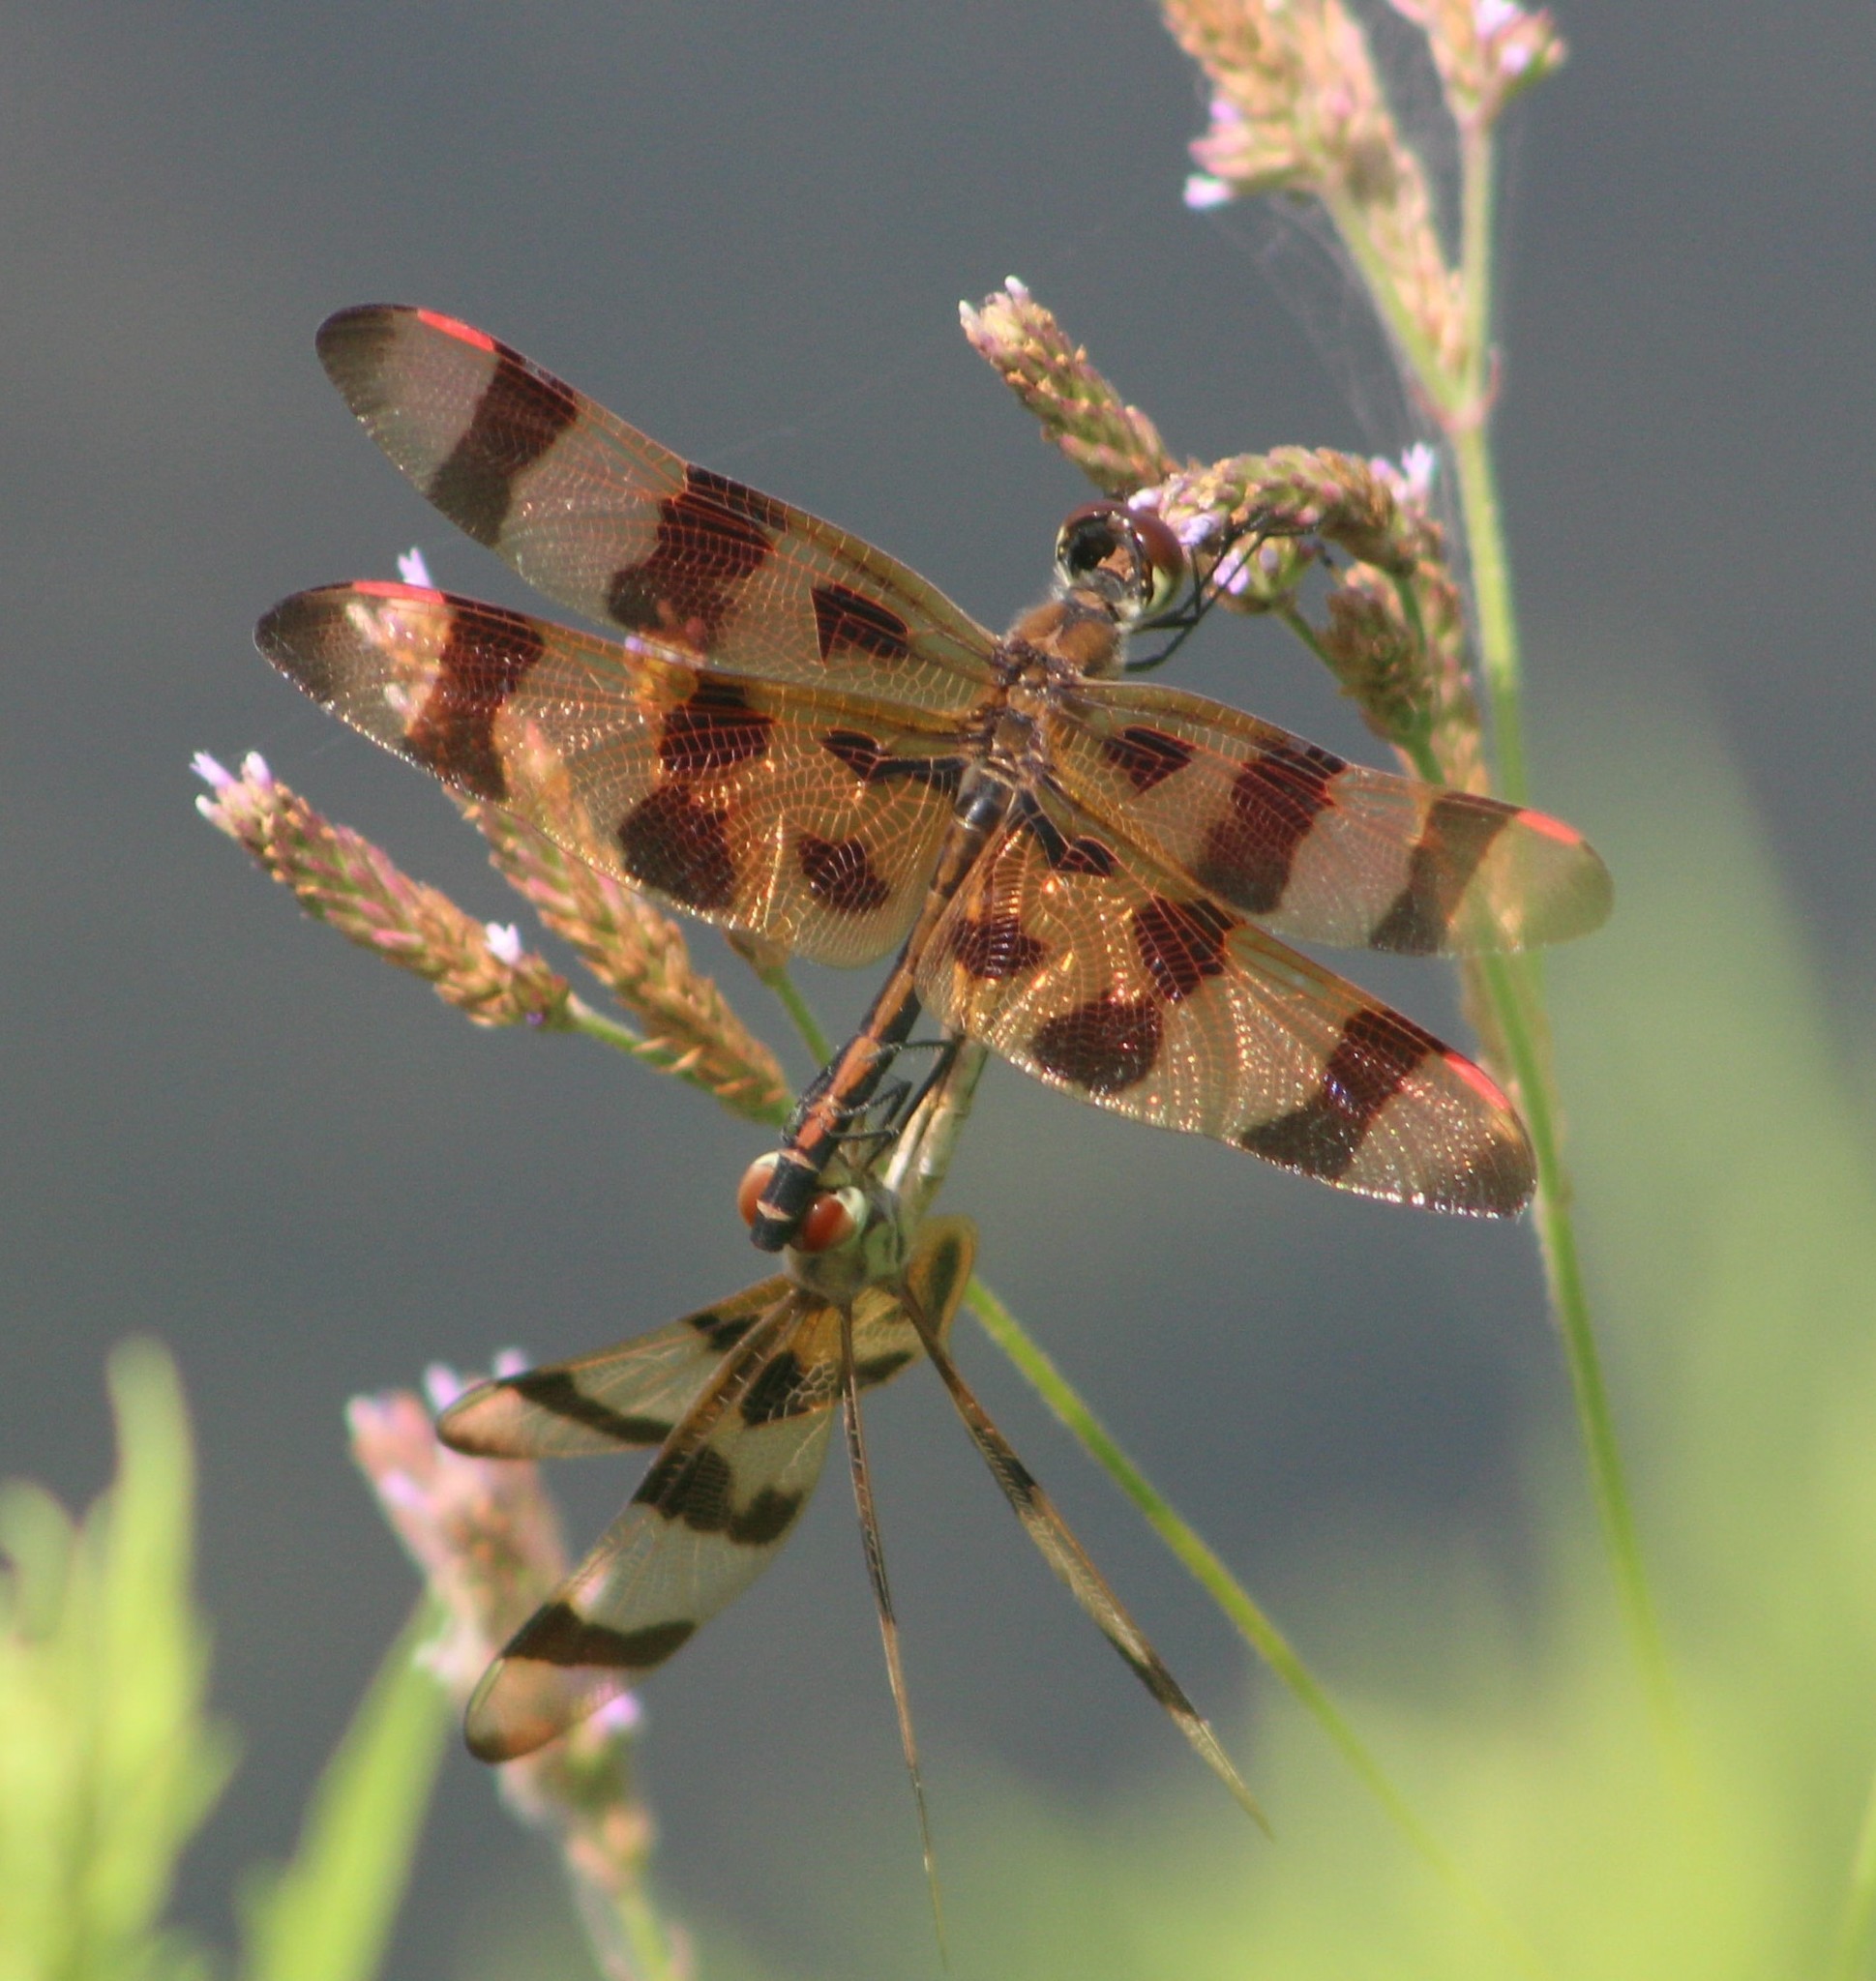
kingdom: Animalia
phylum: Arthropoda
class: Insecta
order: Odonata
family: Libellulidae
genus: Celithemis
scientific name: Celithemis eponina
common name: Halloween pennant
